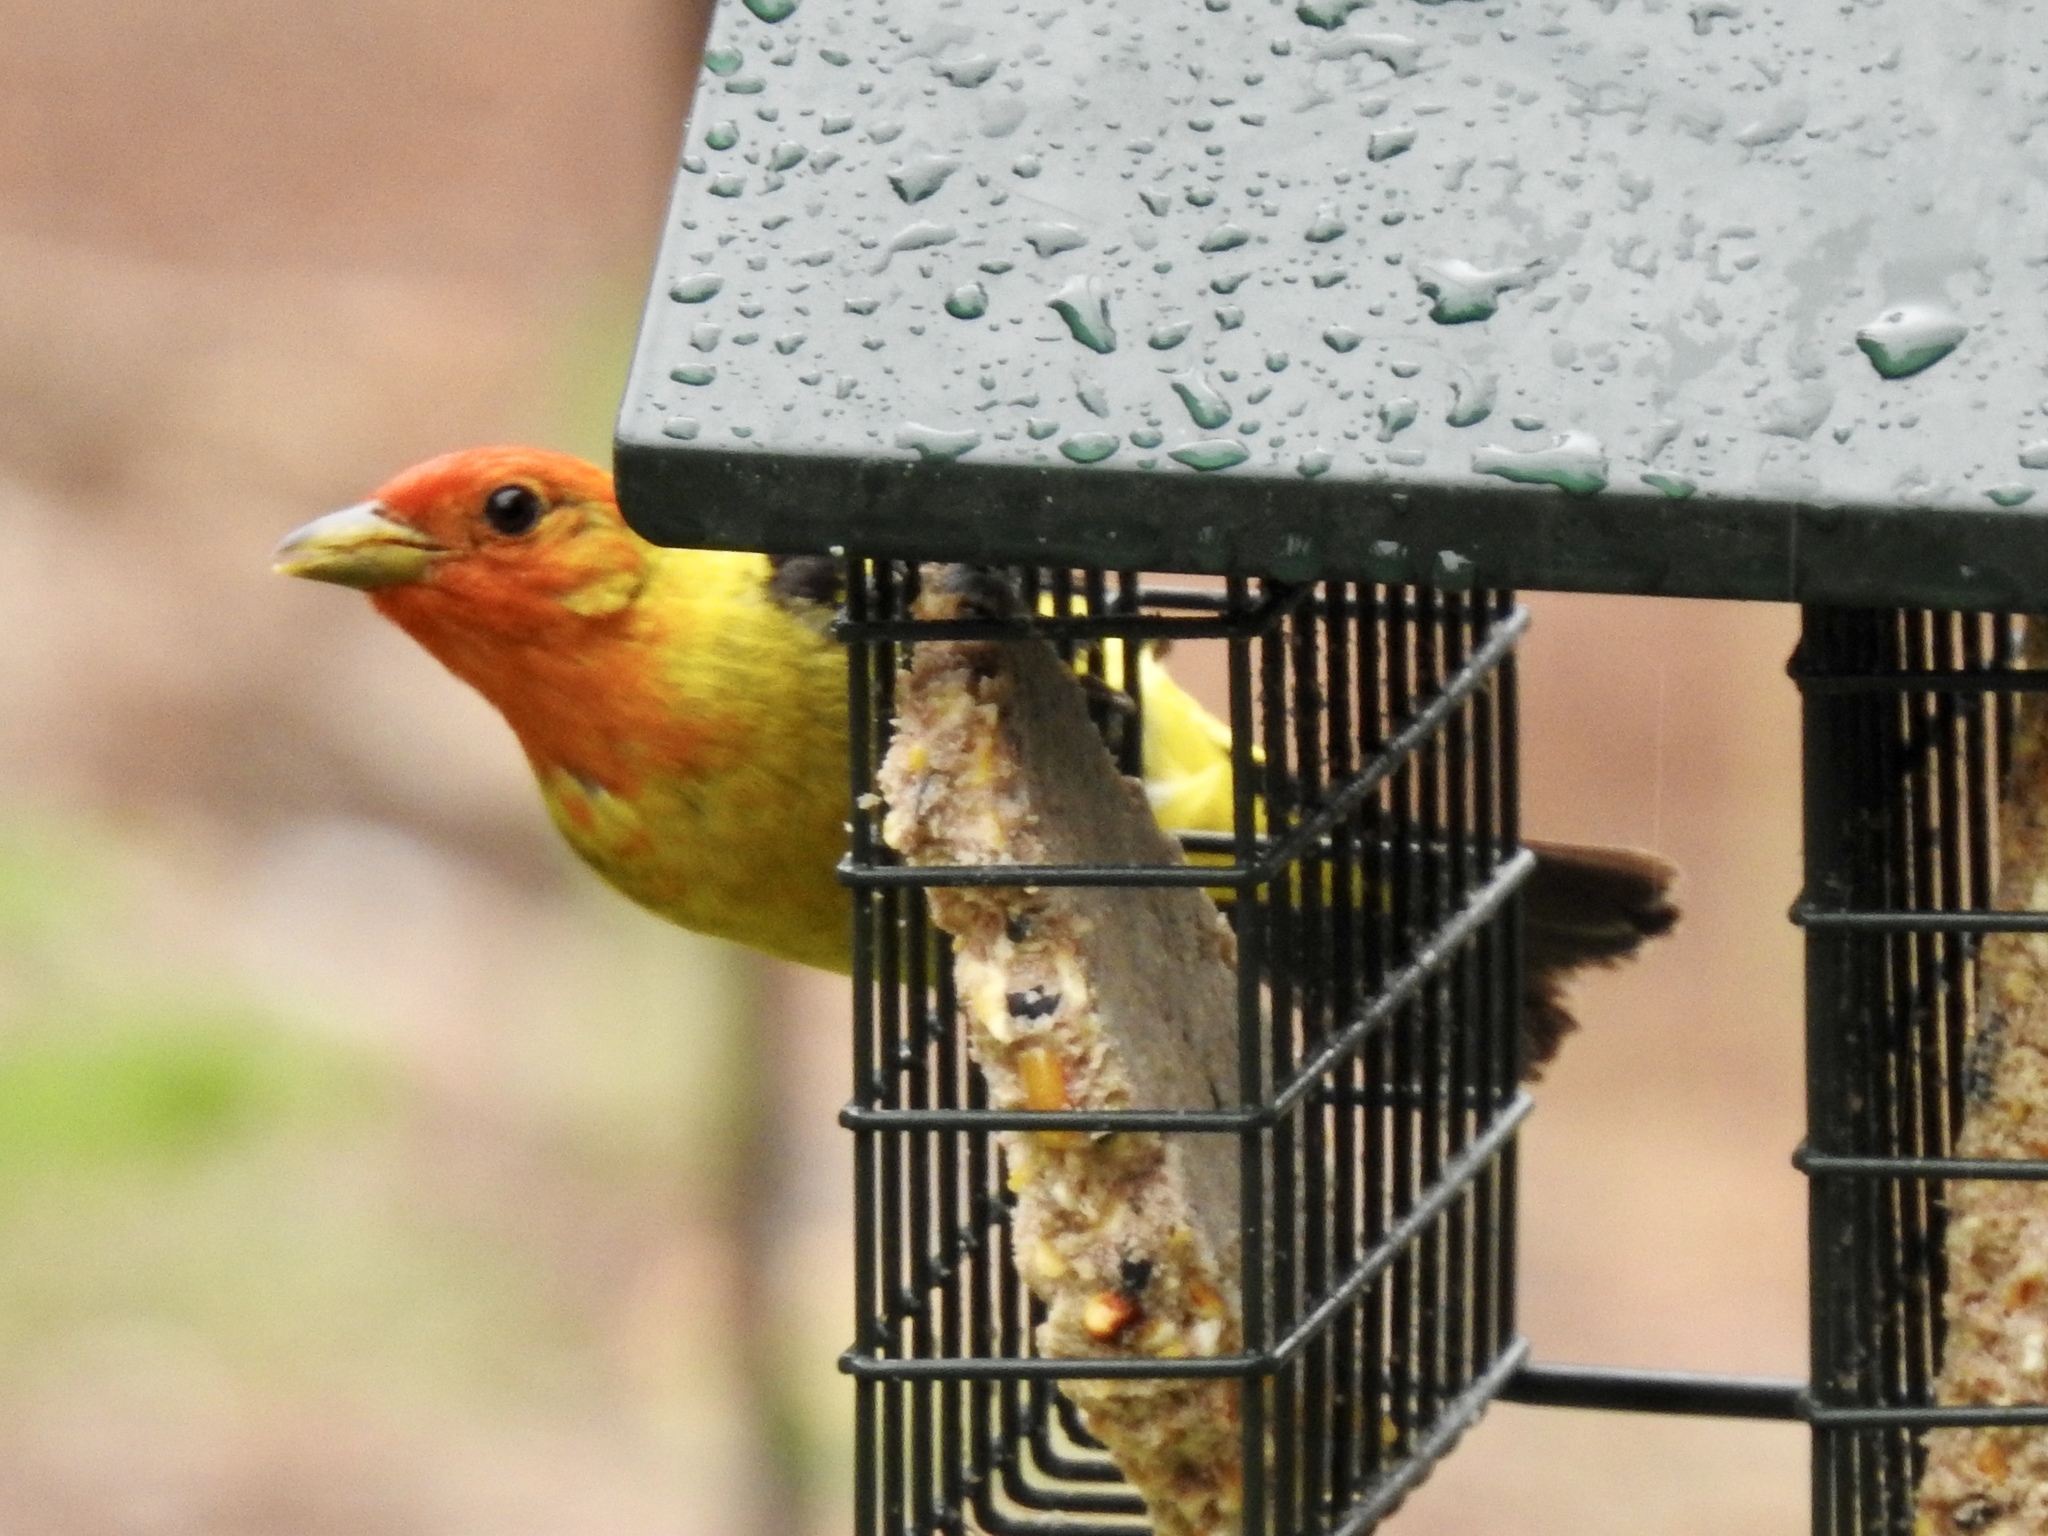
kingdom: Animalia
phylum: Chordata
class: Aves
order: Passeriformes
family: Cardinalidae
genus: Piranga
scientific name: Piranga ludoviciana
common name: Western tanager
